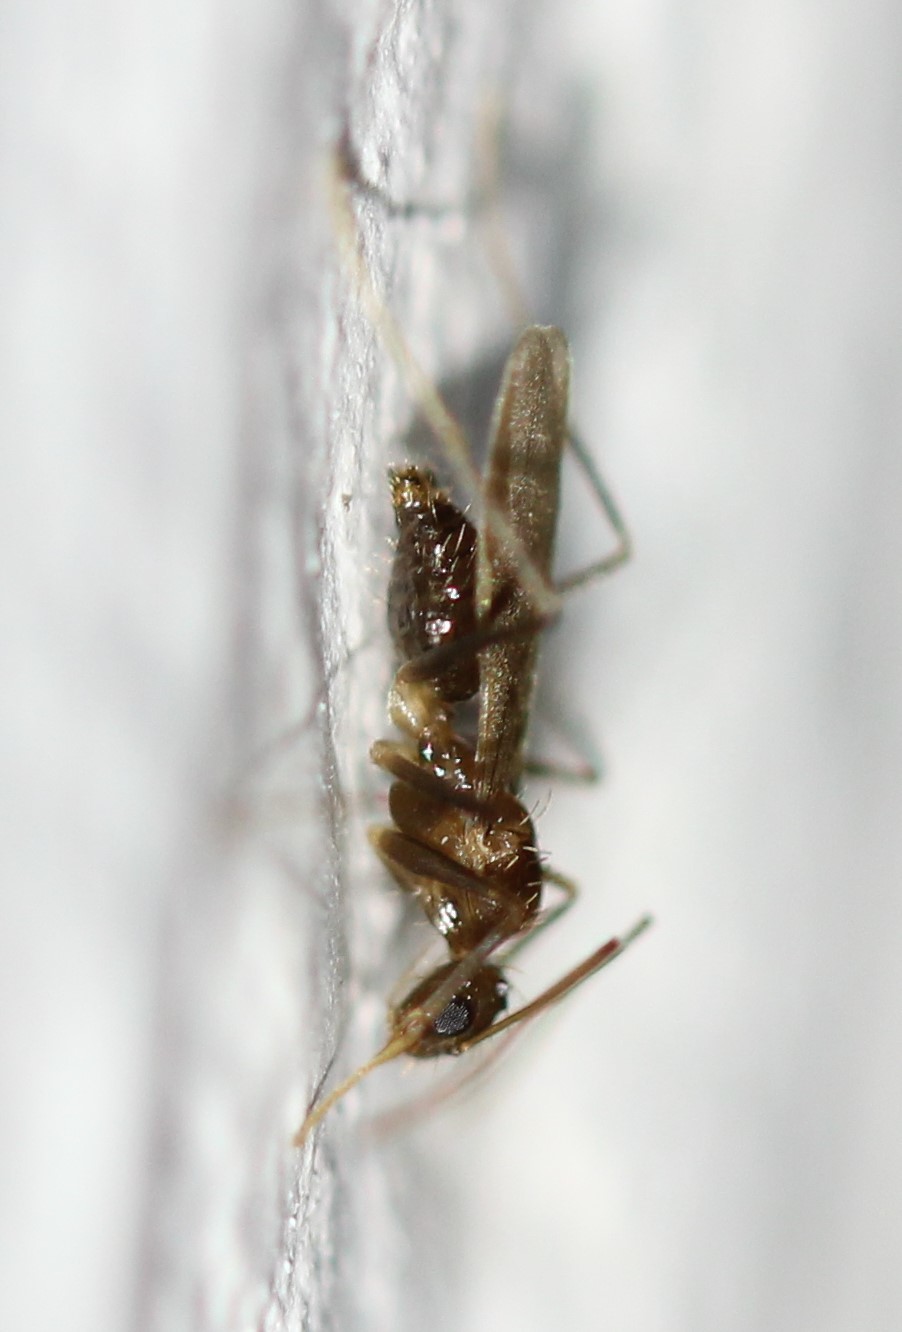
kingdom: Animalia
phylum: Arthropoda
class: Insecta
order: Hymenoptera
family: Formicidae
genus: Paratrechina
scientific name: Paratrechina longicornis
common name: Longhorned crazy ant
